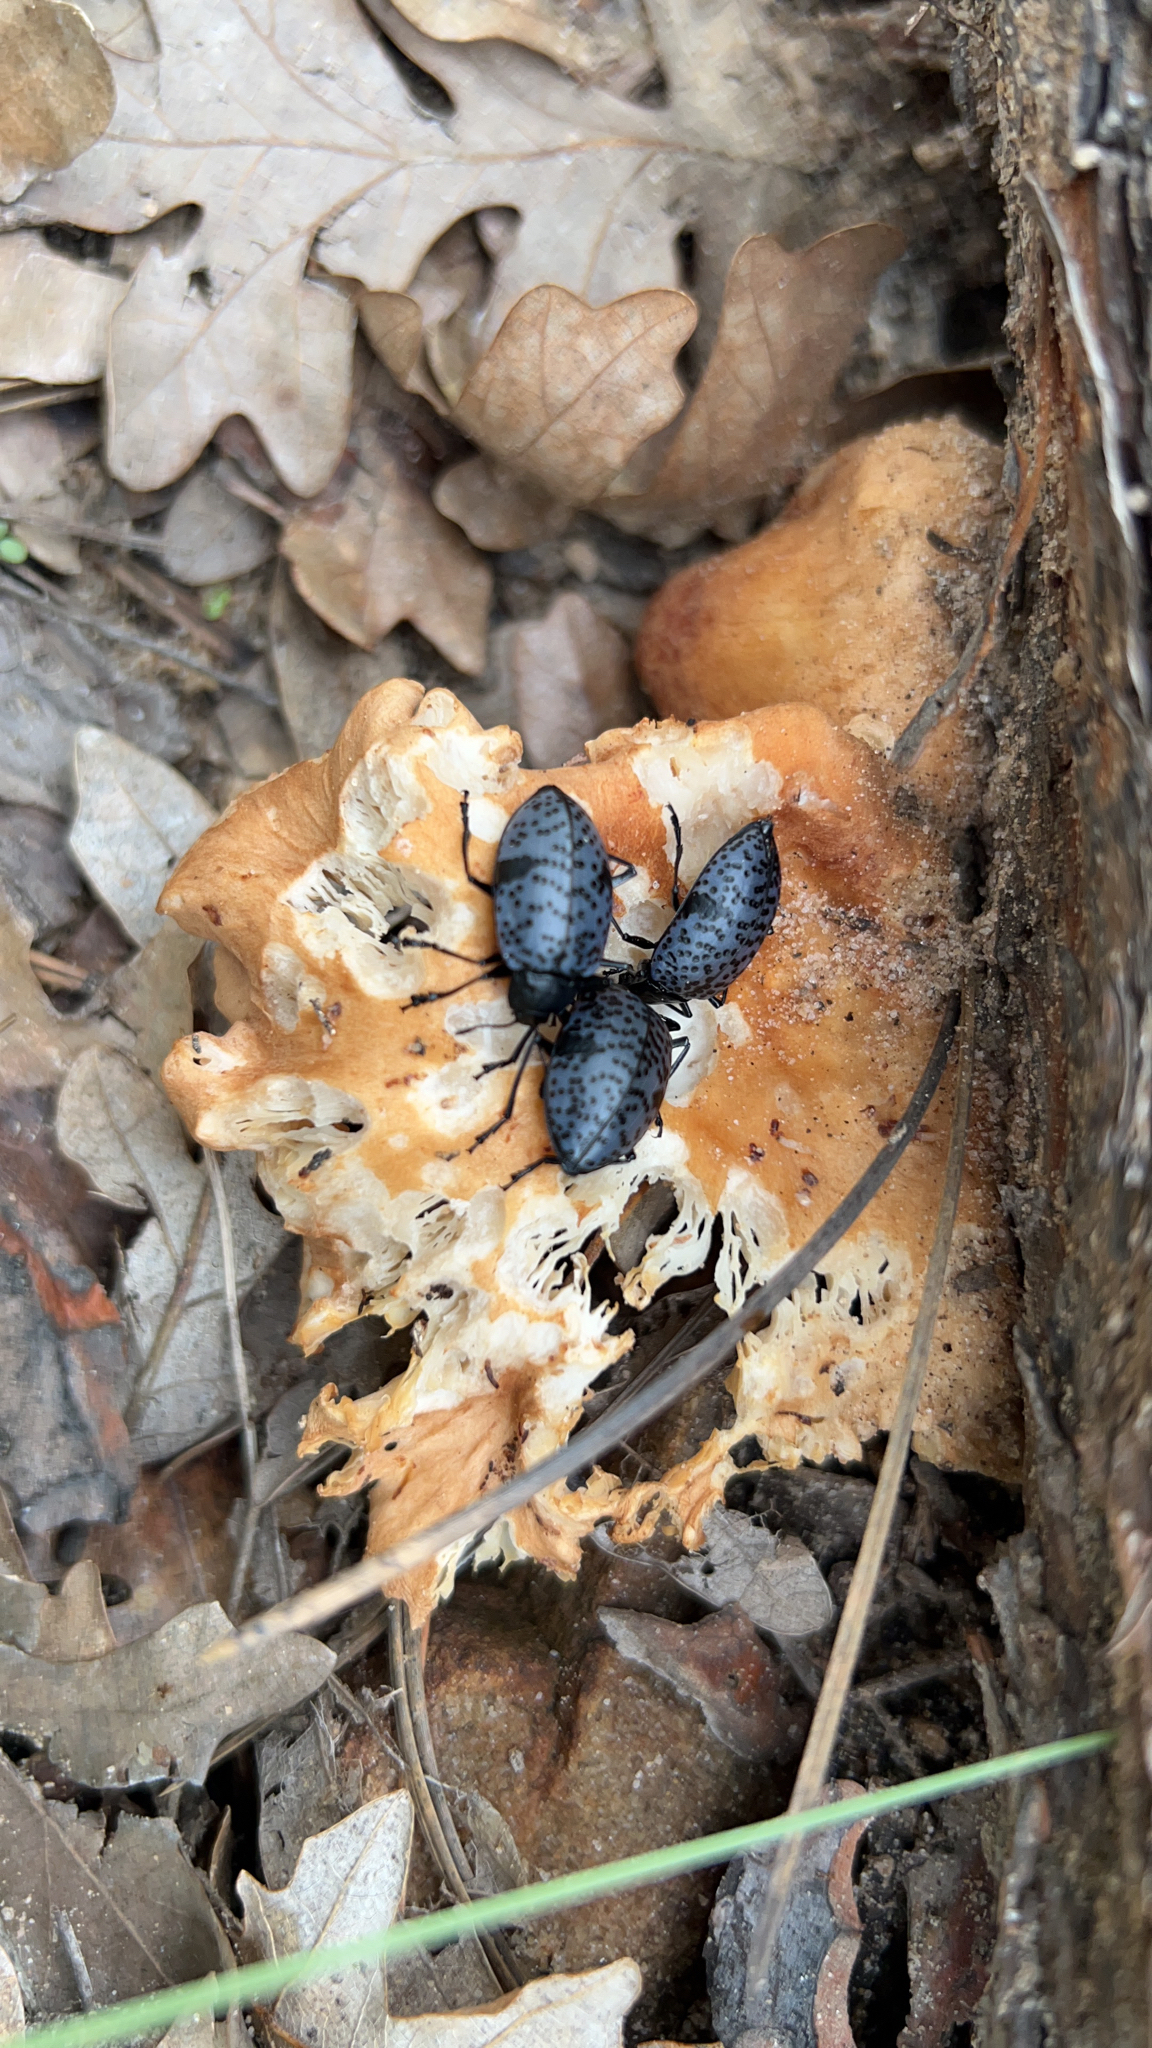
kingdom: Animalia
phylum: Arthropoda
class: Insecta
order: Coleoptera
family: Erotylidae
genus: Gibbifer
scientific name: Gibbifer californicus
